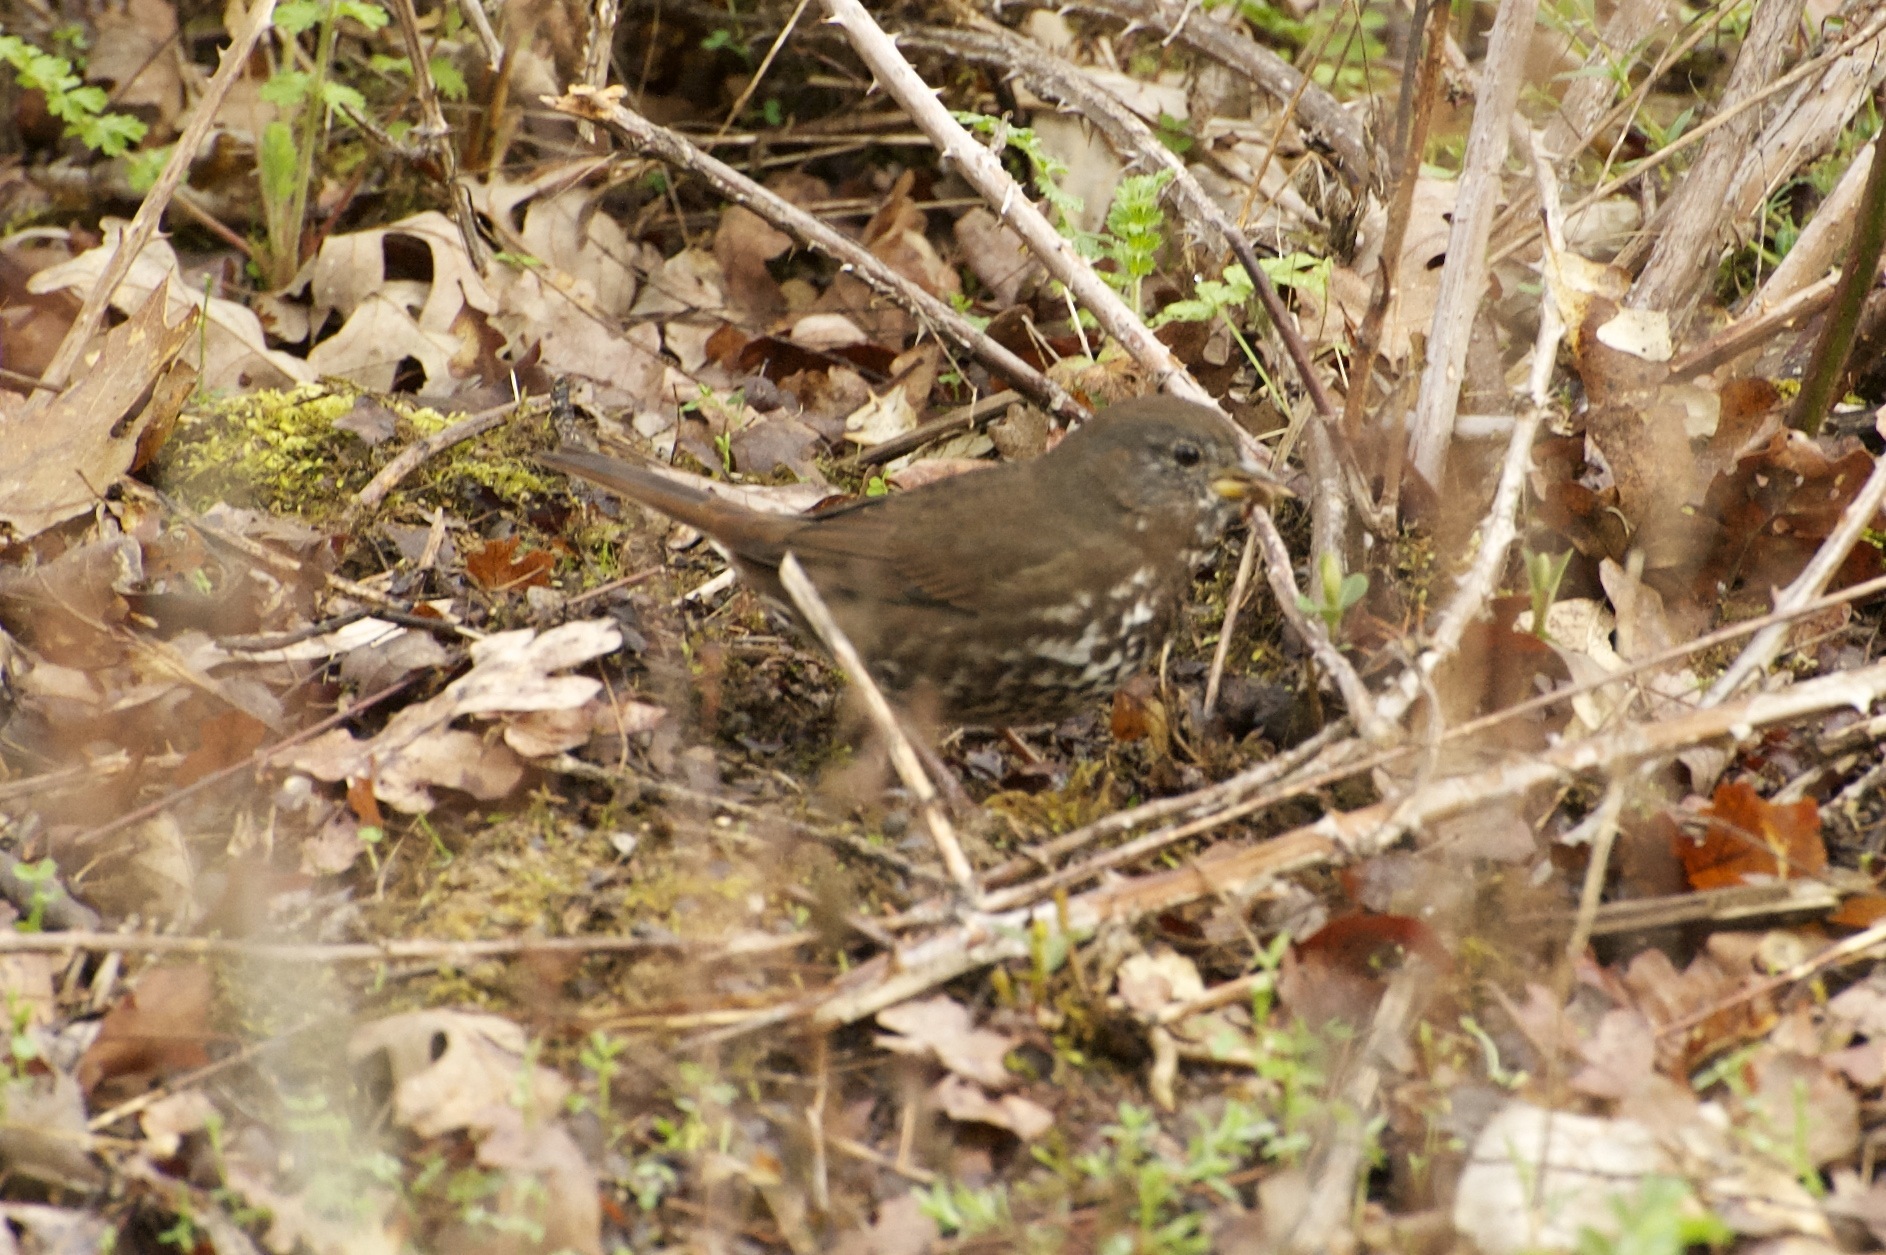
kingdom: Animalia
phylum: Chordata
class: Aves
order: Passeriformes
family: Passerellidae
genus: Passerella
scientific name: Passerella iliaca
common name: Fox sparrow
